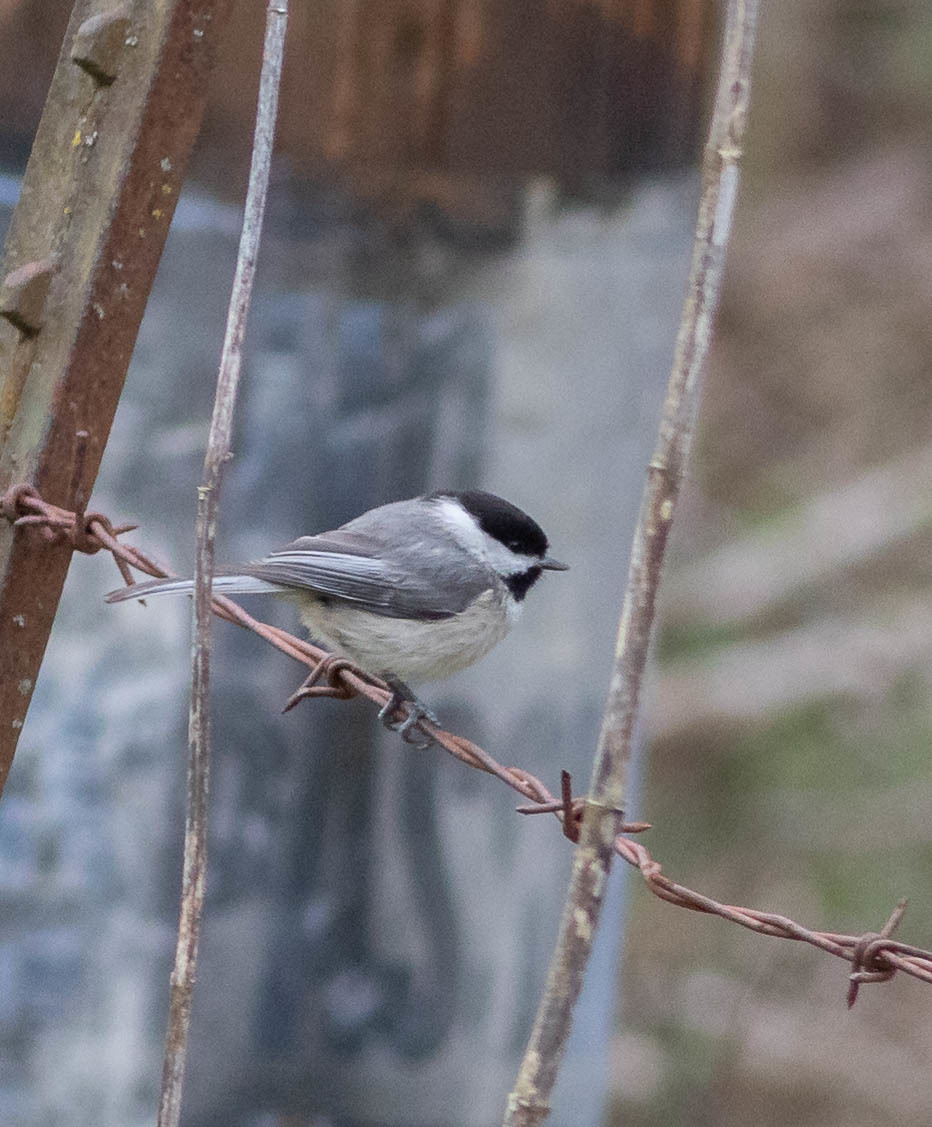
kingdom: Animalia
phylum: Chordata
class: Aves
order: Passeriformes
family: Paridae
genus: Poecile
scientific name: Poecile carolinensis
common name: Carolina chickadee
